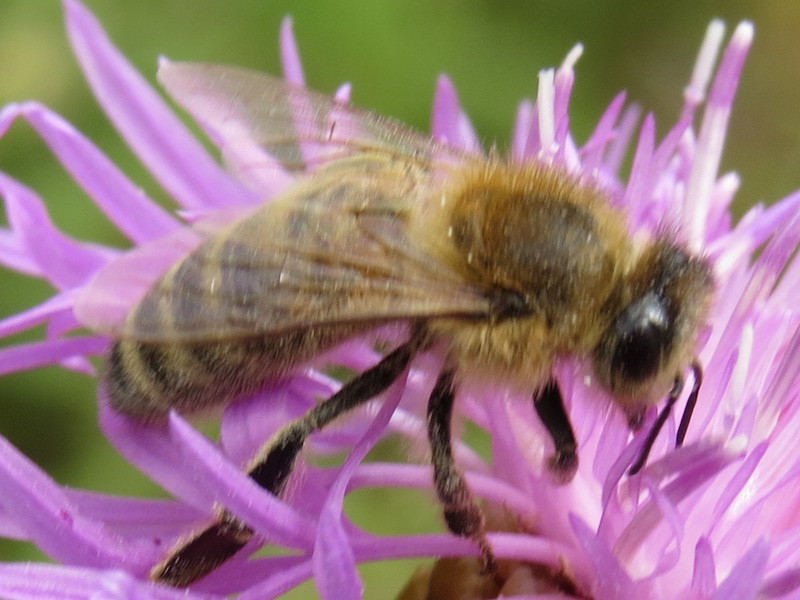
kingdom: Animalia
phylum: Arthropoda
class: Insecta
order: Hymenoptera
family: Apidae
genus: Apis
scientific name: Apis mellifera
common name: Honey bee
